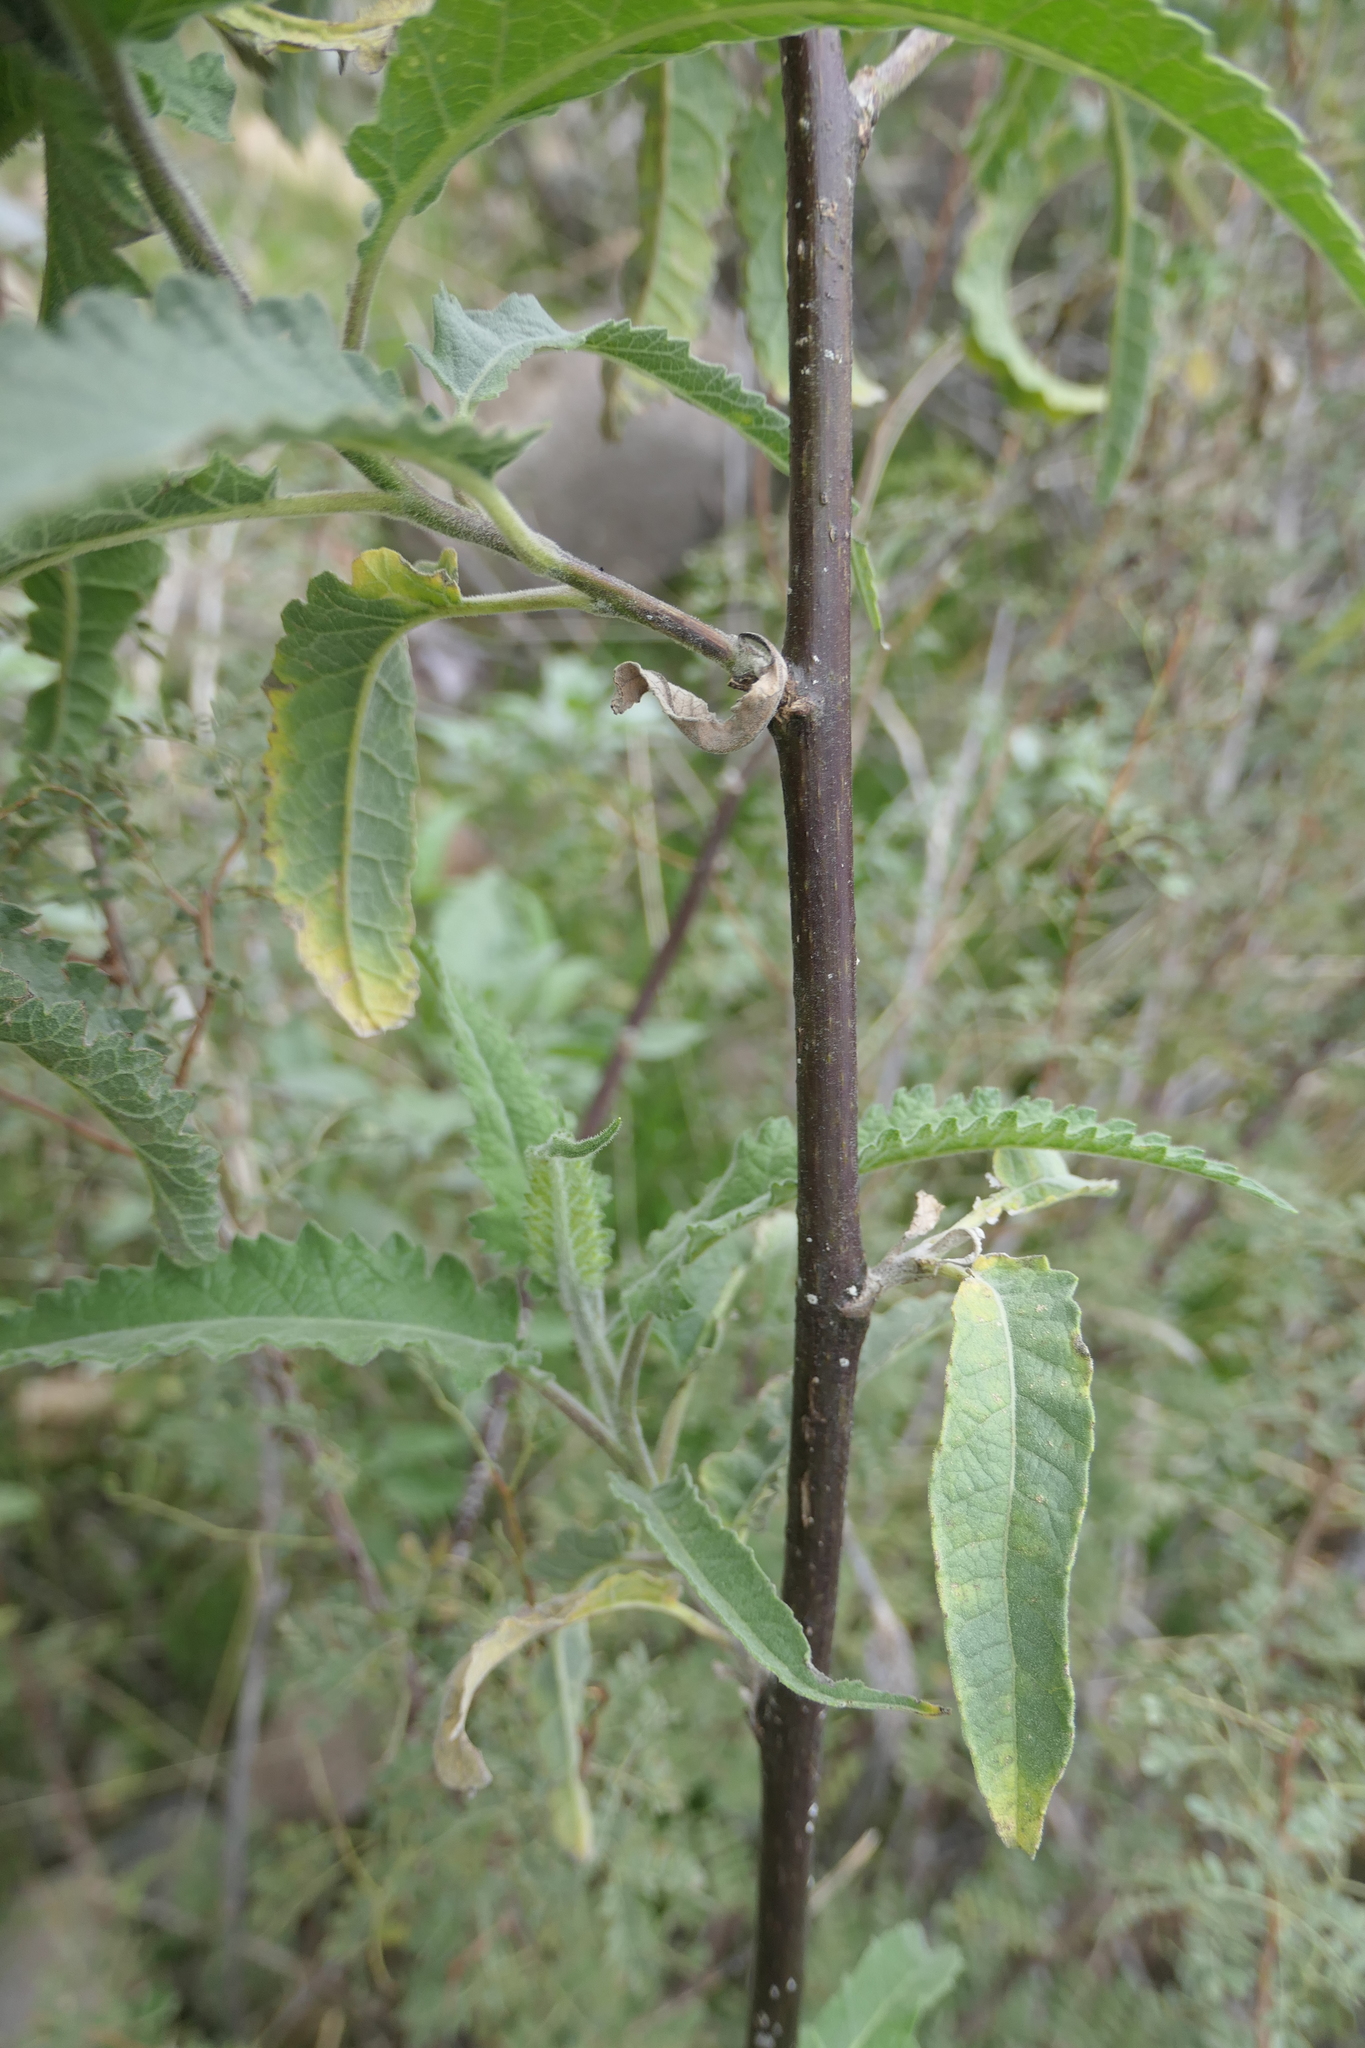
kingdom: Plantae
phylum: Tracheophyta
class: Magnoliopsida
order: Asterales
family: Asteraceae
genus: Ambrosia
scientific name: Ambrosia ambrosioides
